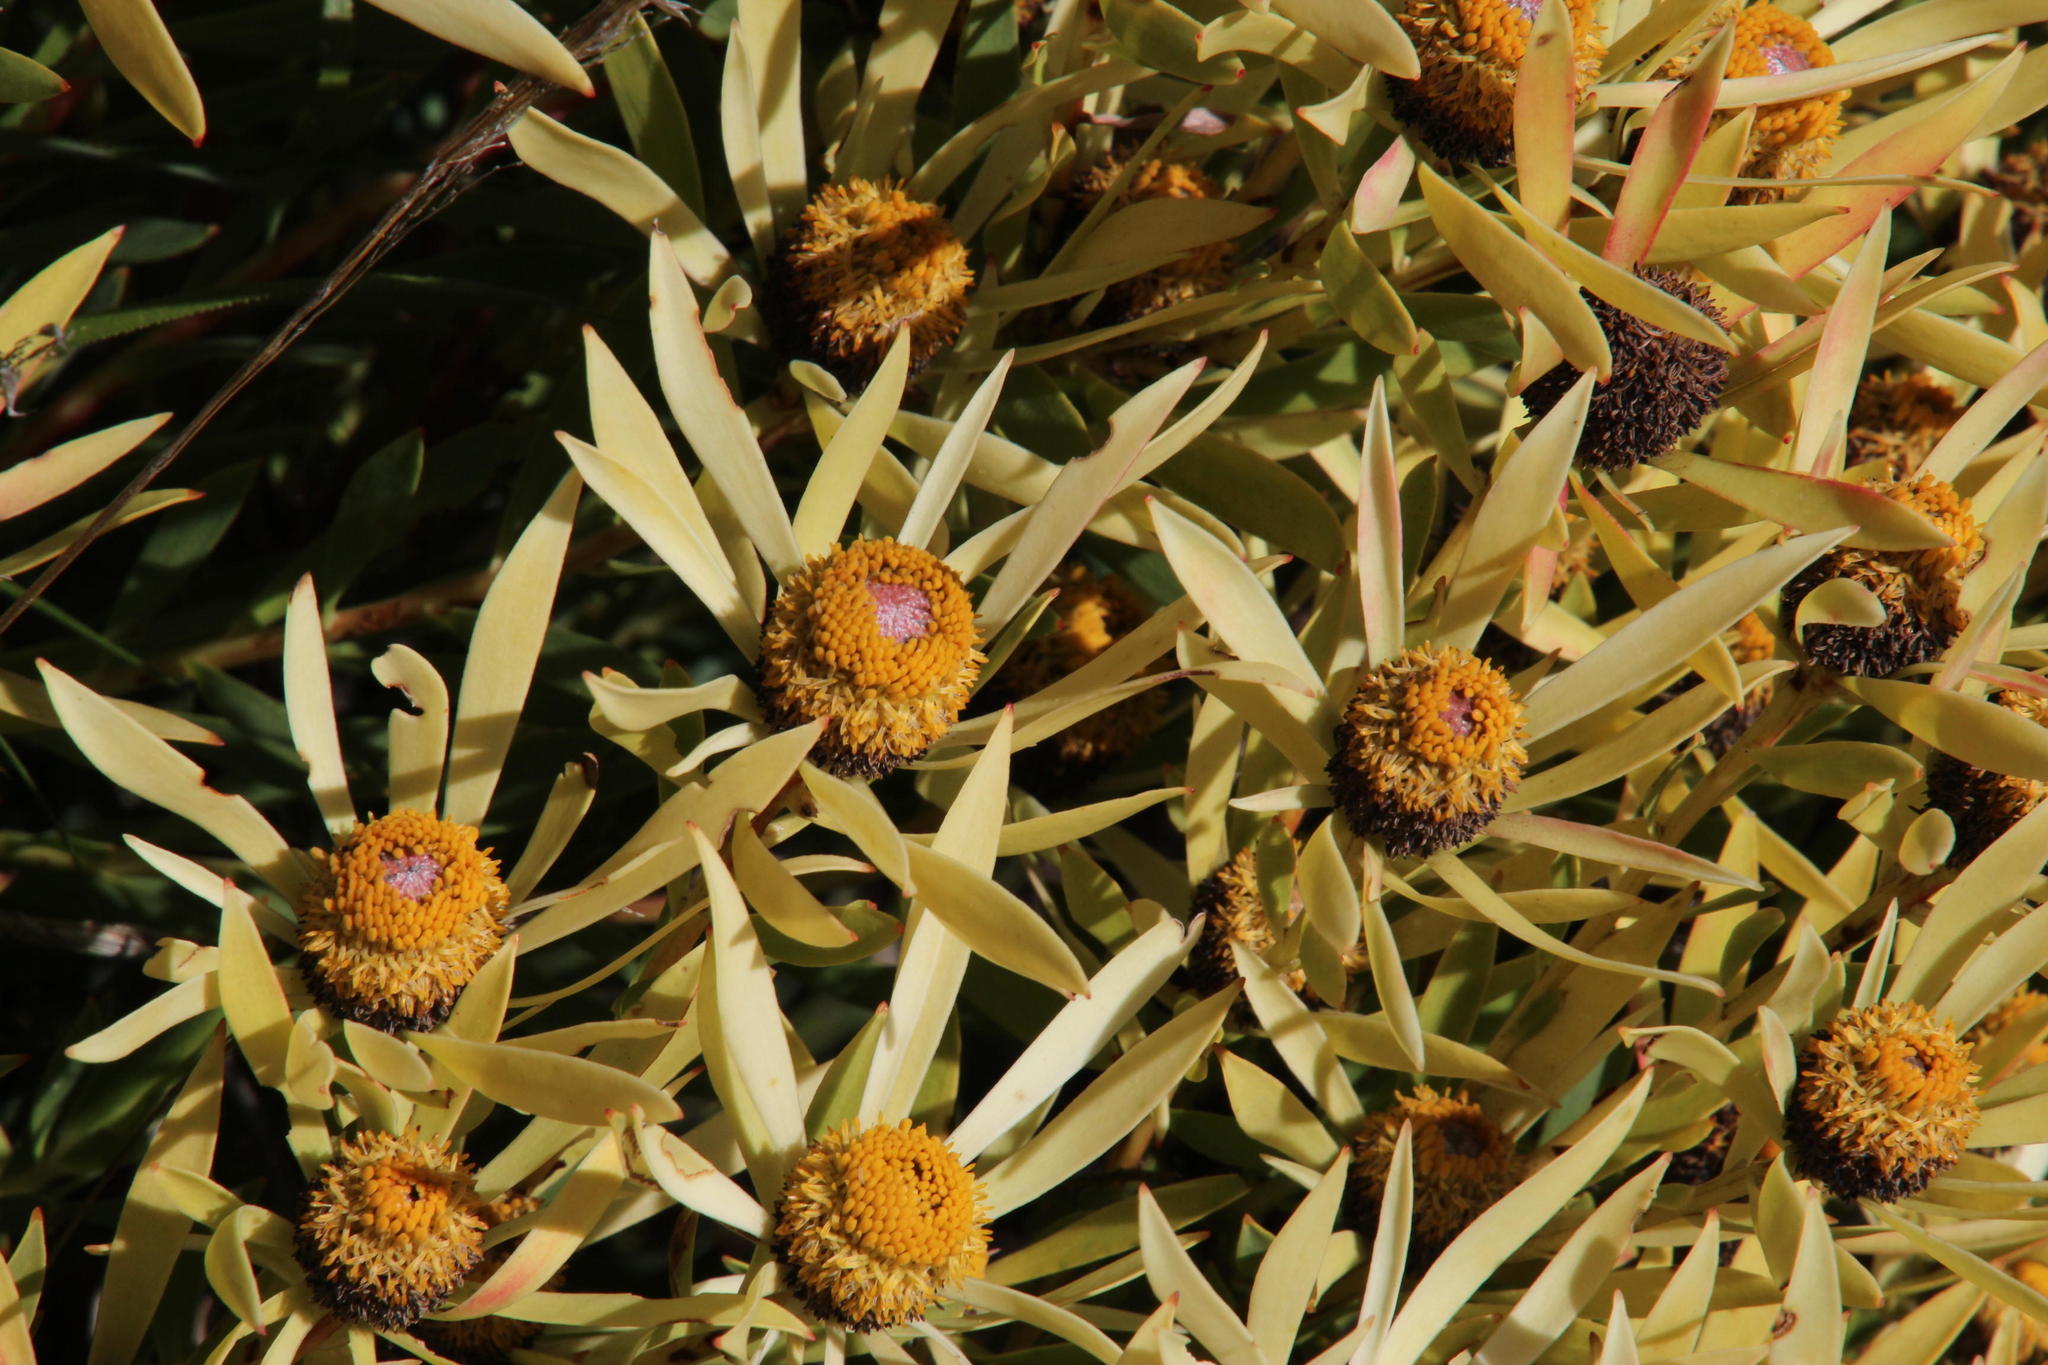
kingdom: Plantae
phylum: Tracheophyta
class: Magnoliopsida
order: Proteales
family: Proteaceae
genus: Leucadendron
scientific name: Leucadendron salignum
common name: Common sunshine conebush
